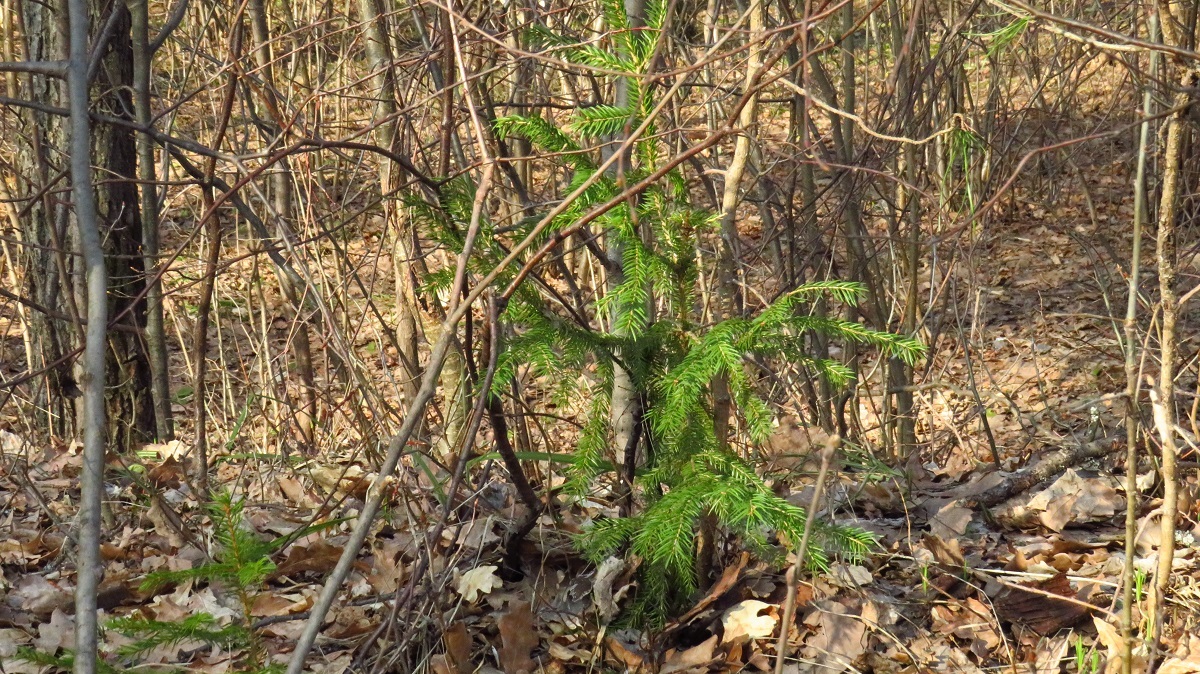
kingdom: Plantae
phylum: Tracheophyta
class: Pinopsida
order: Pinales
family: Pinaceae
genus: Picea
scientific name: Picea abies
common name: Norway spruce
